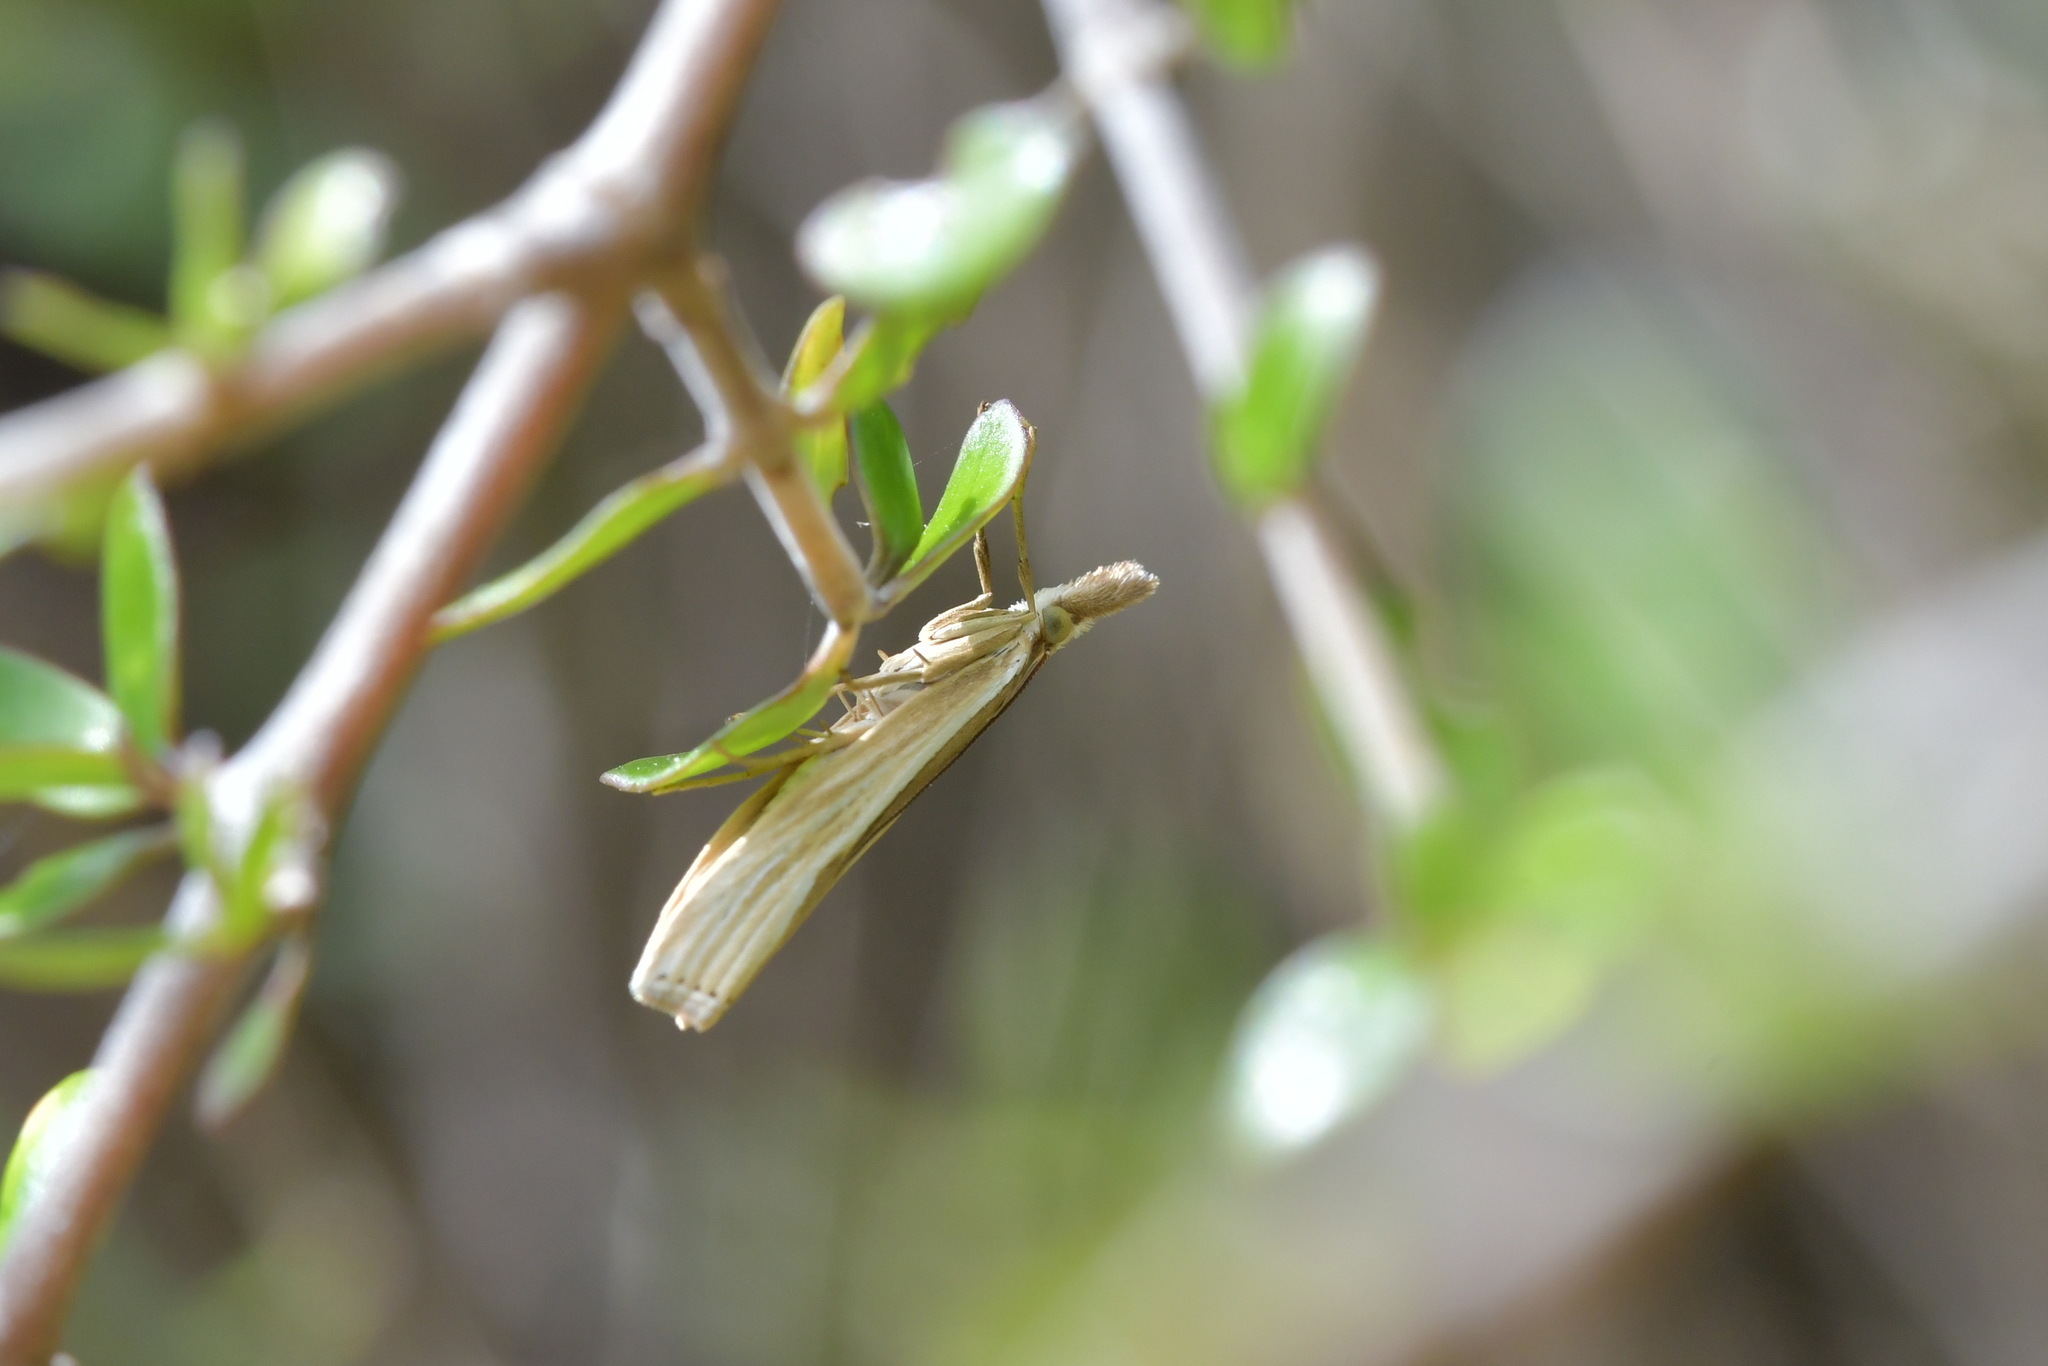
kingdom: Animalia
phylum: Arthropoda
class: Insecta
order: Lepidoptera
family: Crambidae
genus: Orocrambus
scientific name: Orocrambus ramosellus
